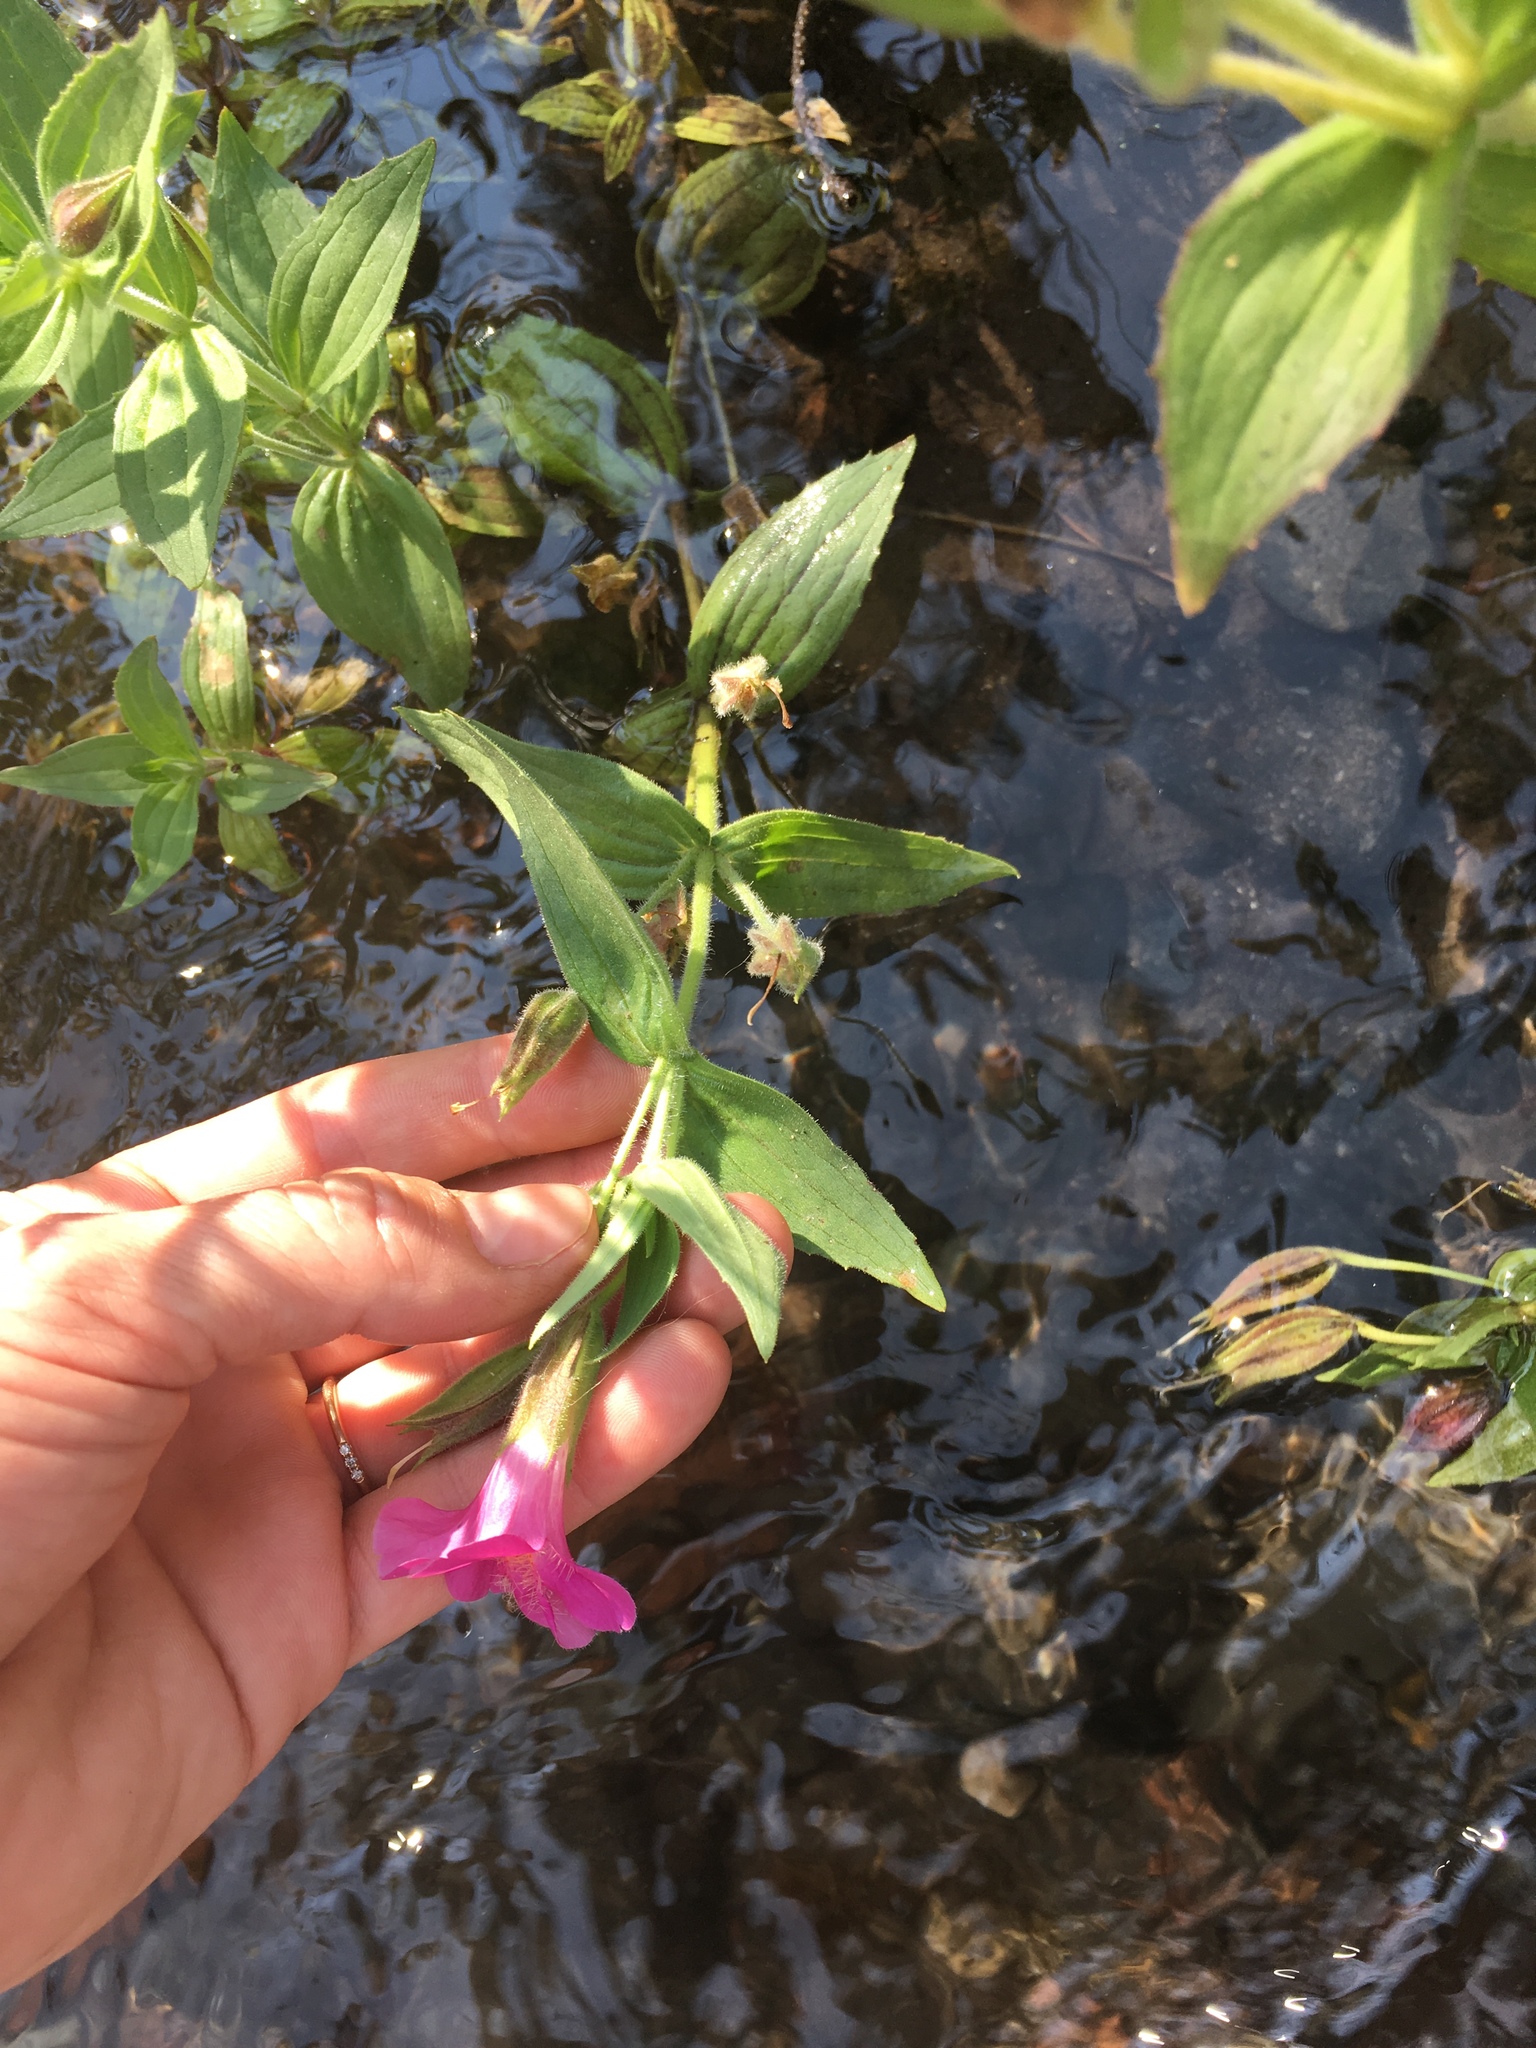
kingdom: Plantae
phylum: Tracheophyta
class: Magnoliopsida
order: Lamiales
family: Phrymaceae
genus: Erythranthe
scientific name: Erythranthe lewisii
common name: Lewis's monkey-flower
